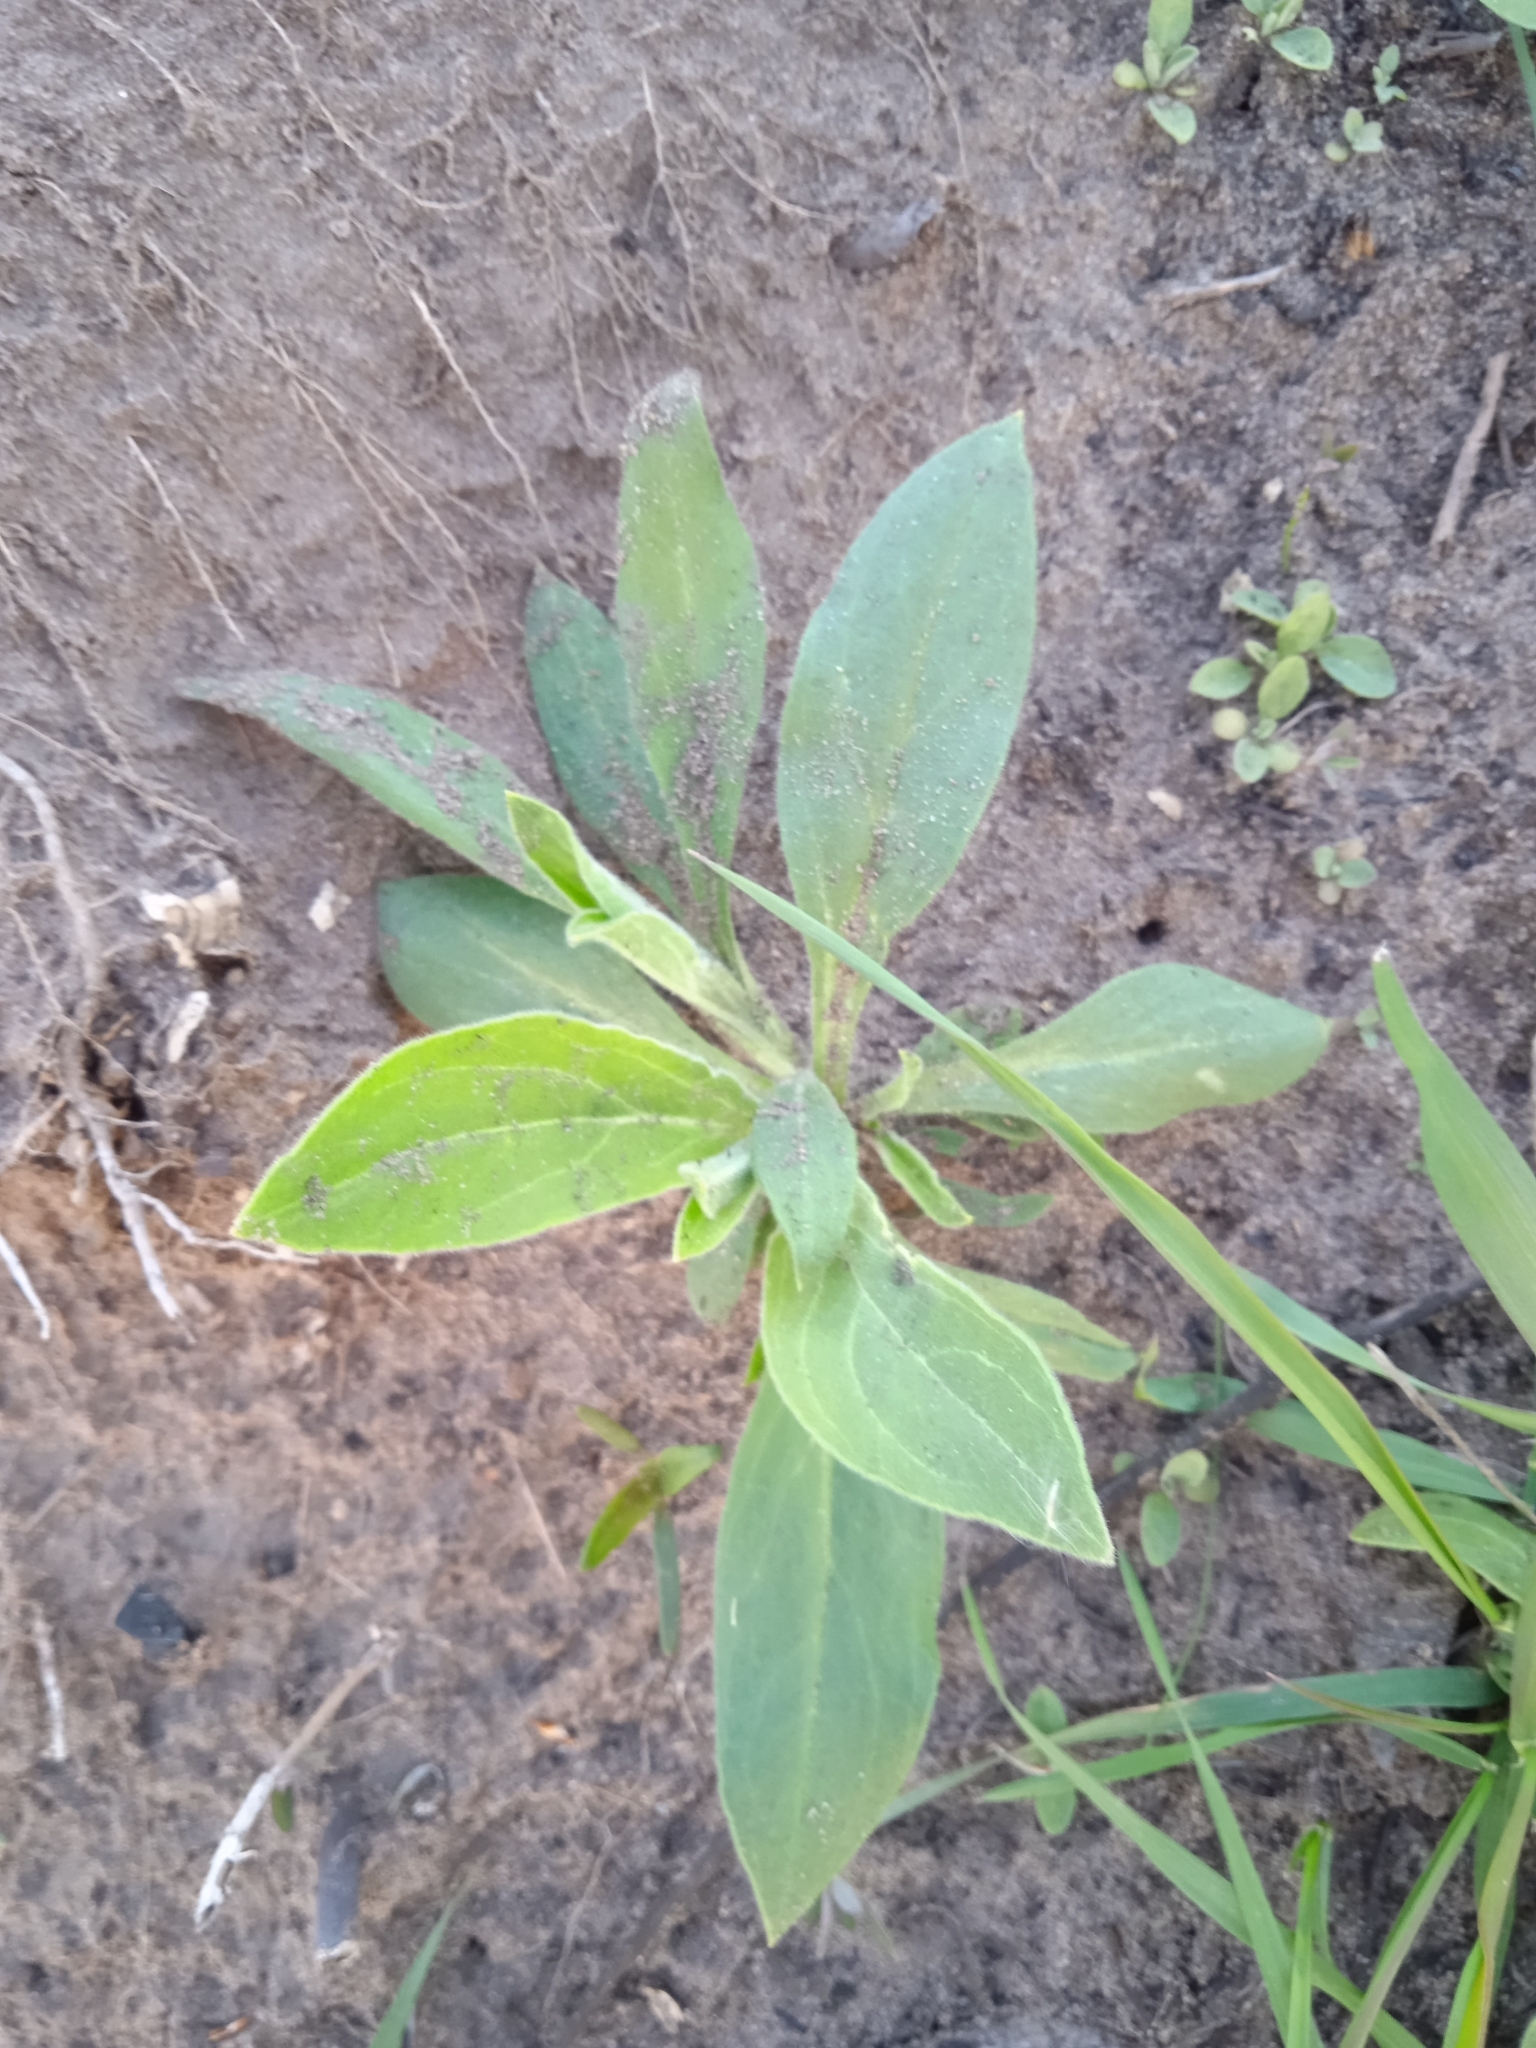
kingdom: Plantae
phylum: Tracheophyta
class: Magnoliopsida
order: Caryophyllales
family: Caryophyllaceae
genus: Silene
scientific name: Silene latifolia
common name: White campion
